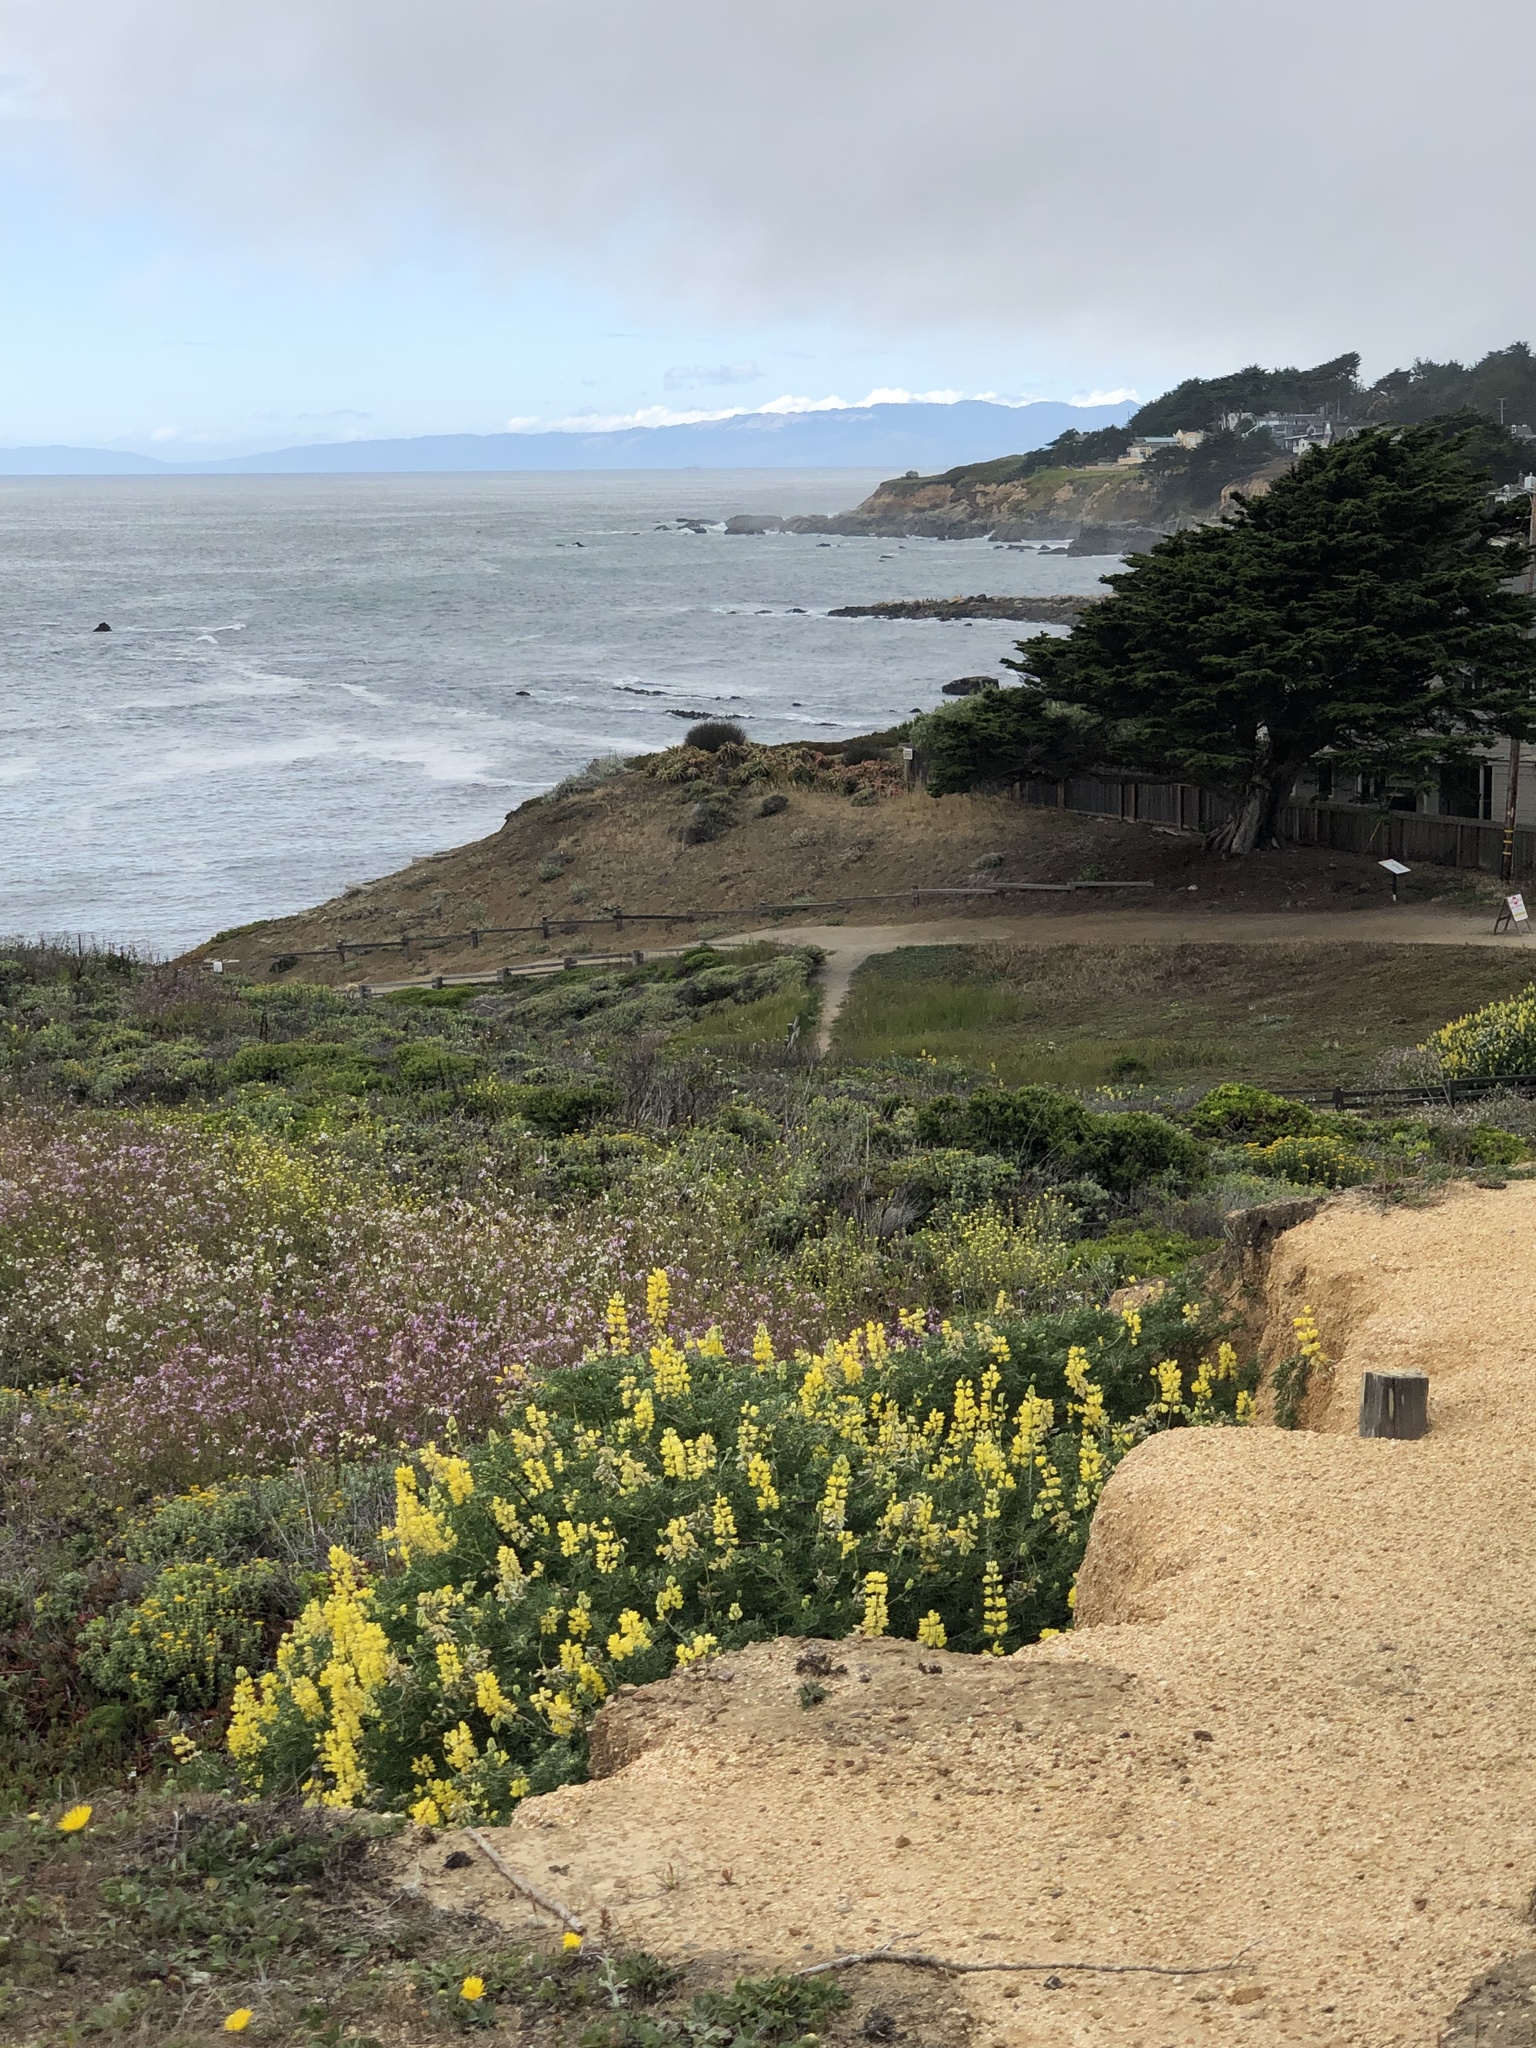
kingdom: Plantae
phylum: Tracheophyta
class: Magnoliopsida
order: Fabales
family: Fabaceae
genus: Lupinus
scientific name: Lupinus arboreus
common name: Yellow bush lupine
